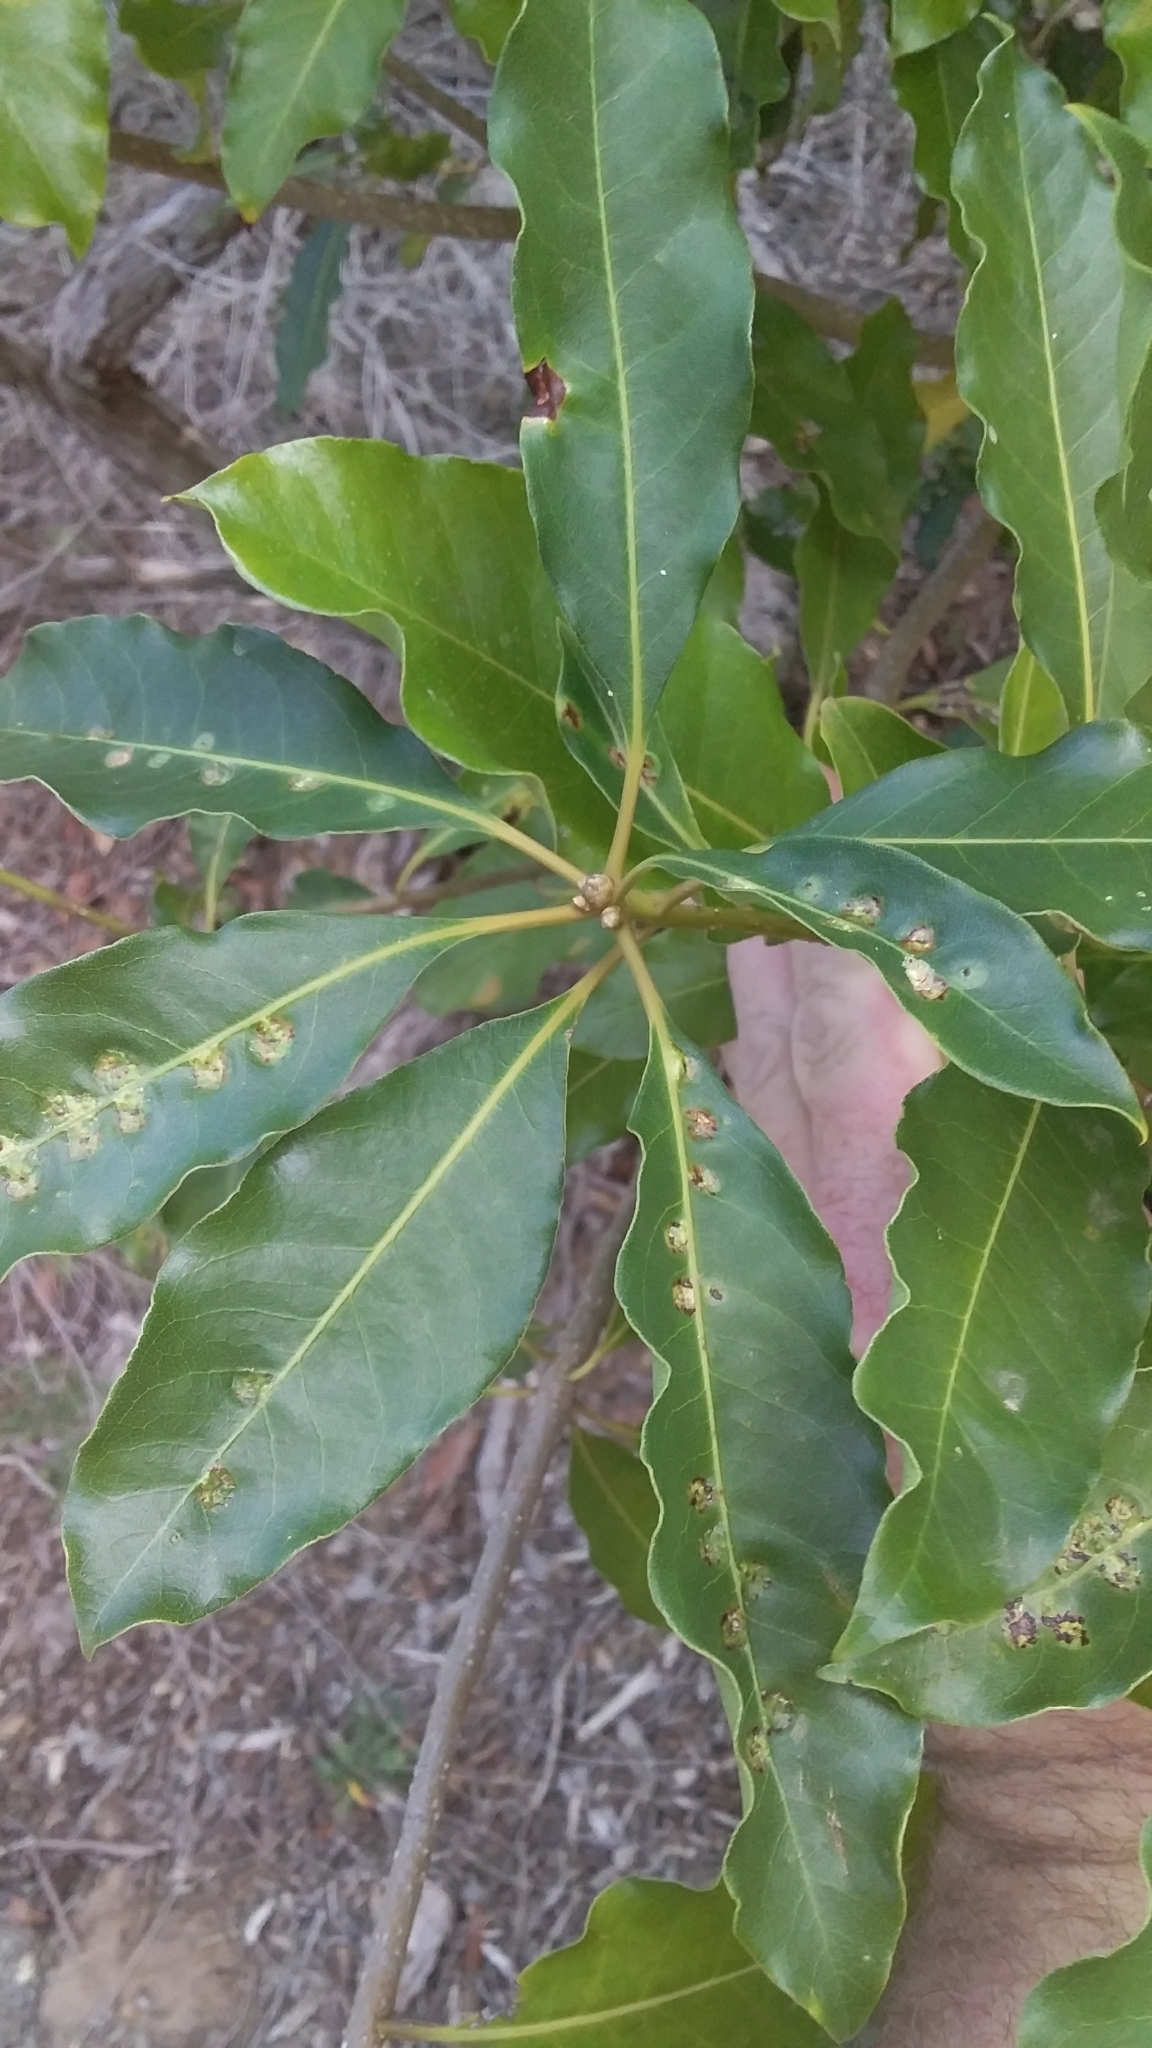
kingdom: Plantae
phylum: Tracheophyta
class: Magnoliopsida
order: Apiales
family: Pittosporaceae
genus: Pittosporum
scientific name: Pittosporum undulatum
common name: Australian cheesewood
